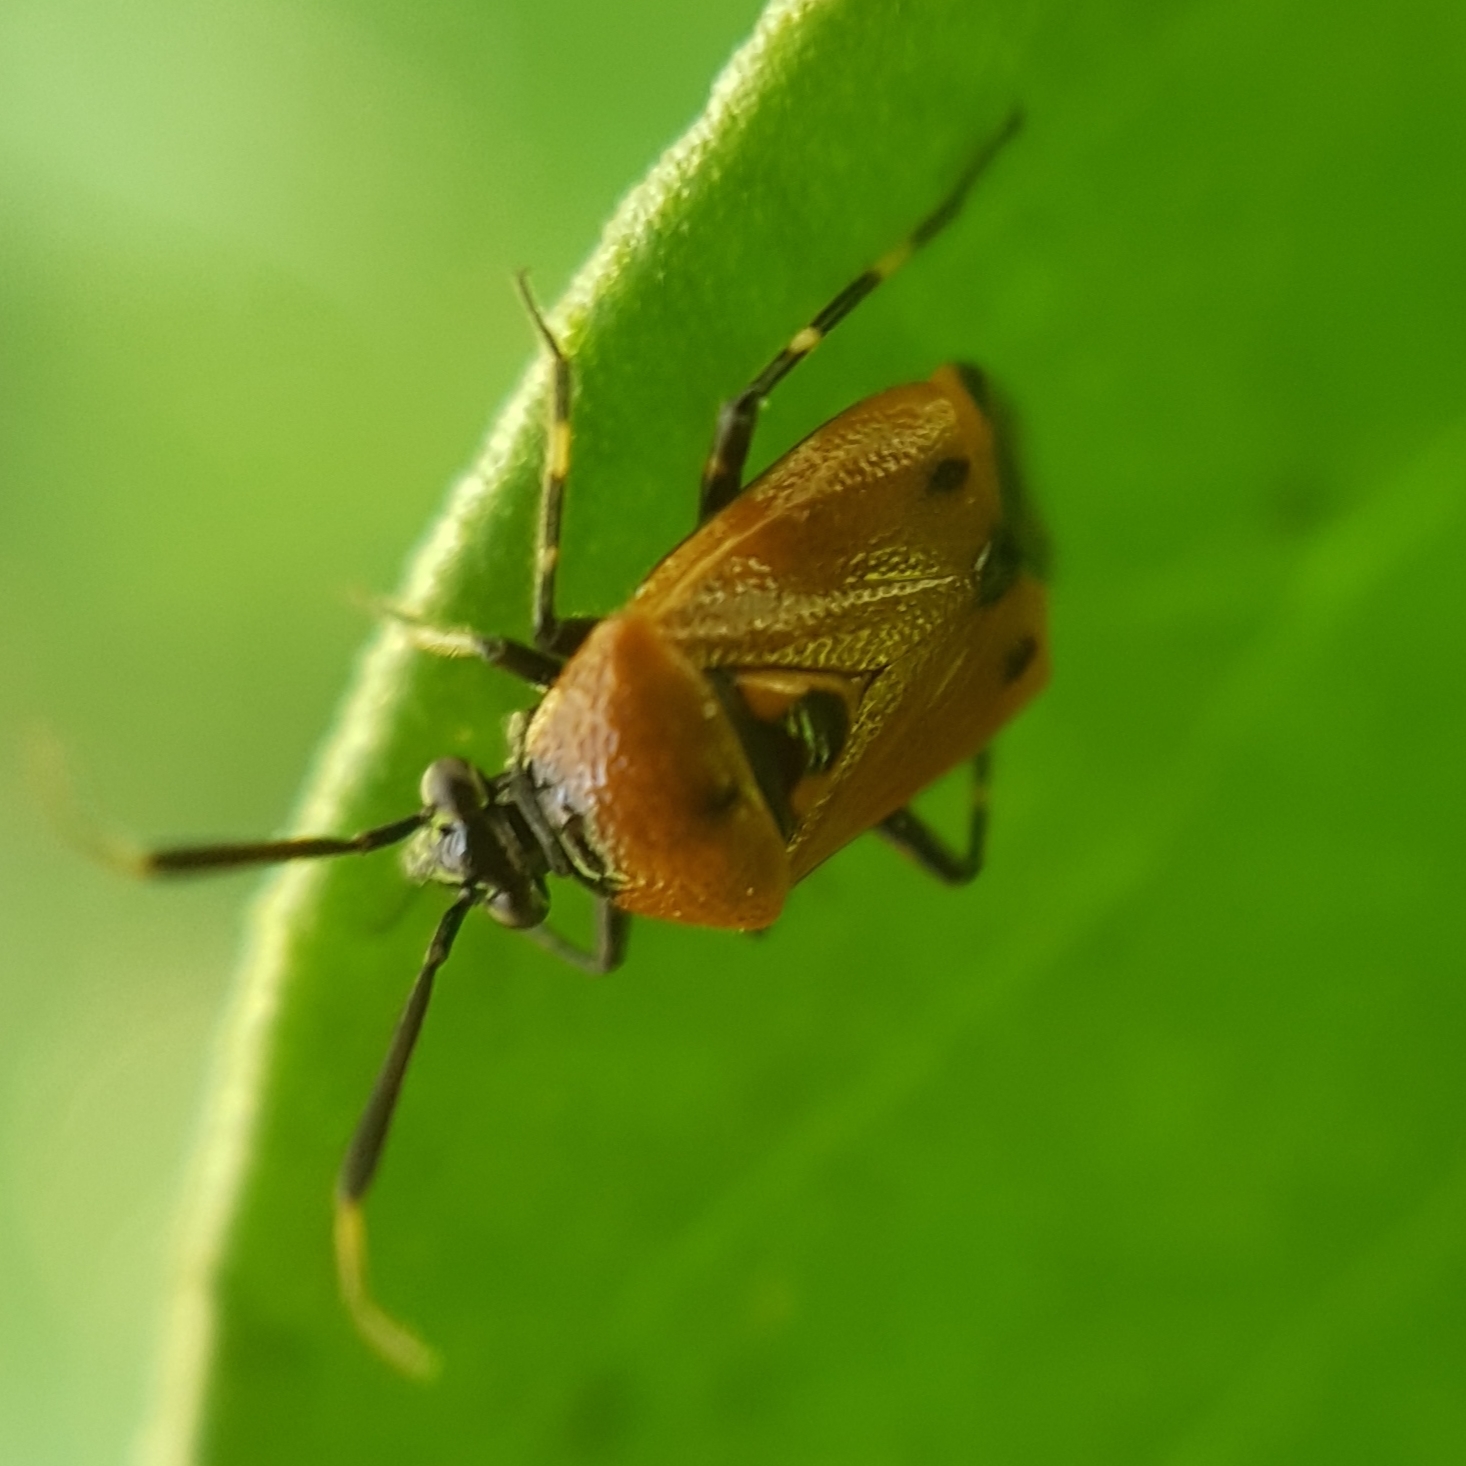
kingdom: Animalia
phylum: Arthropoda
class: Insecta
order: Hemiptera
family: Miridae
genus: Deraeocoris
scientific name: Deraeocoris punctum
